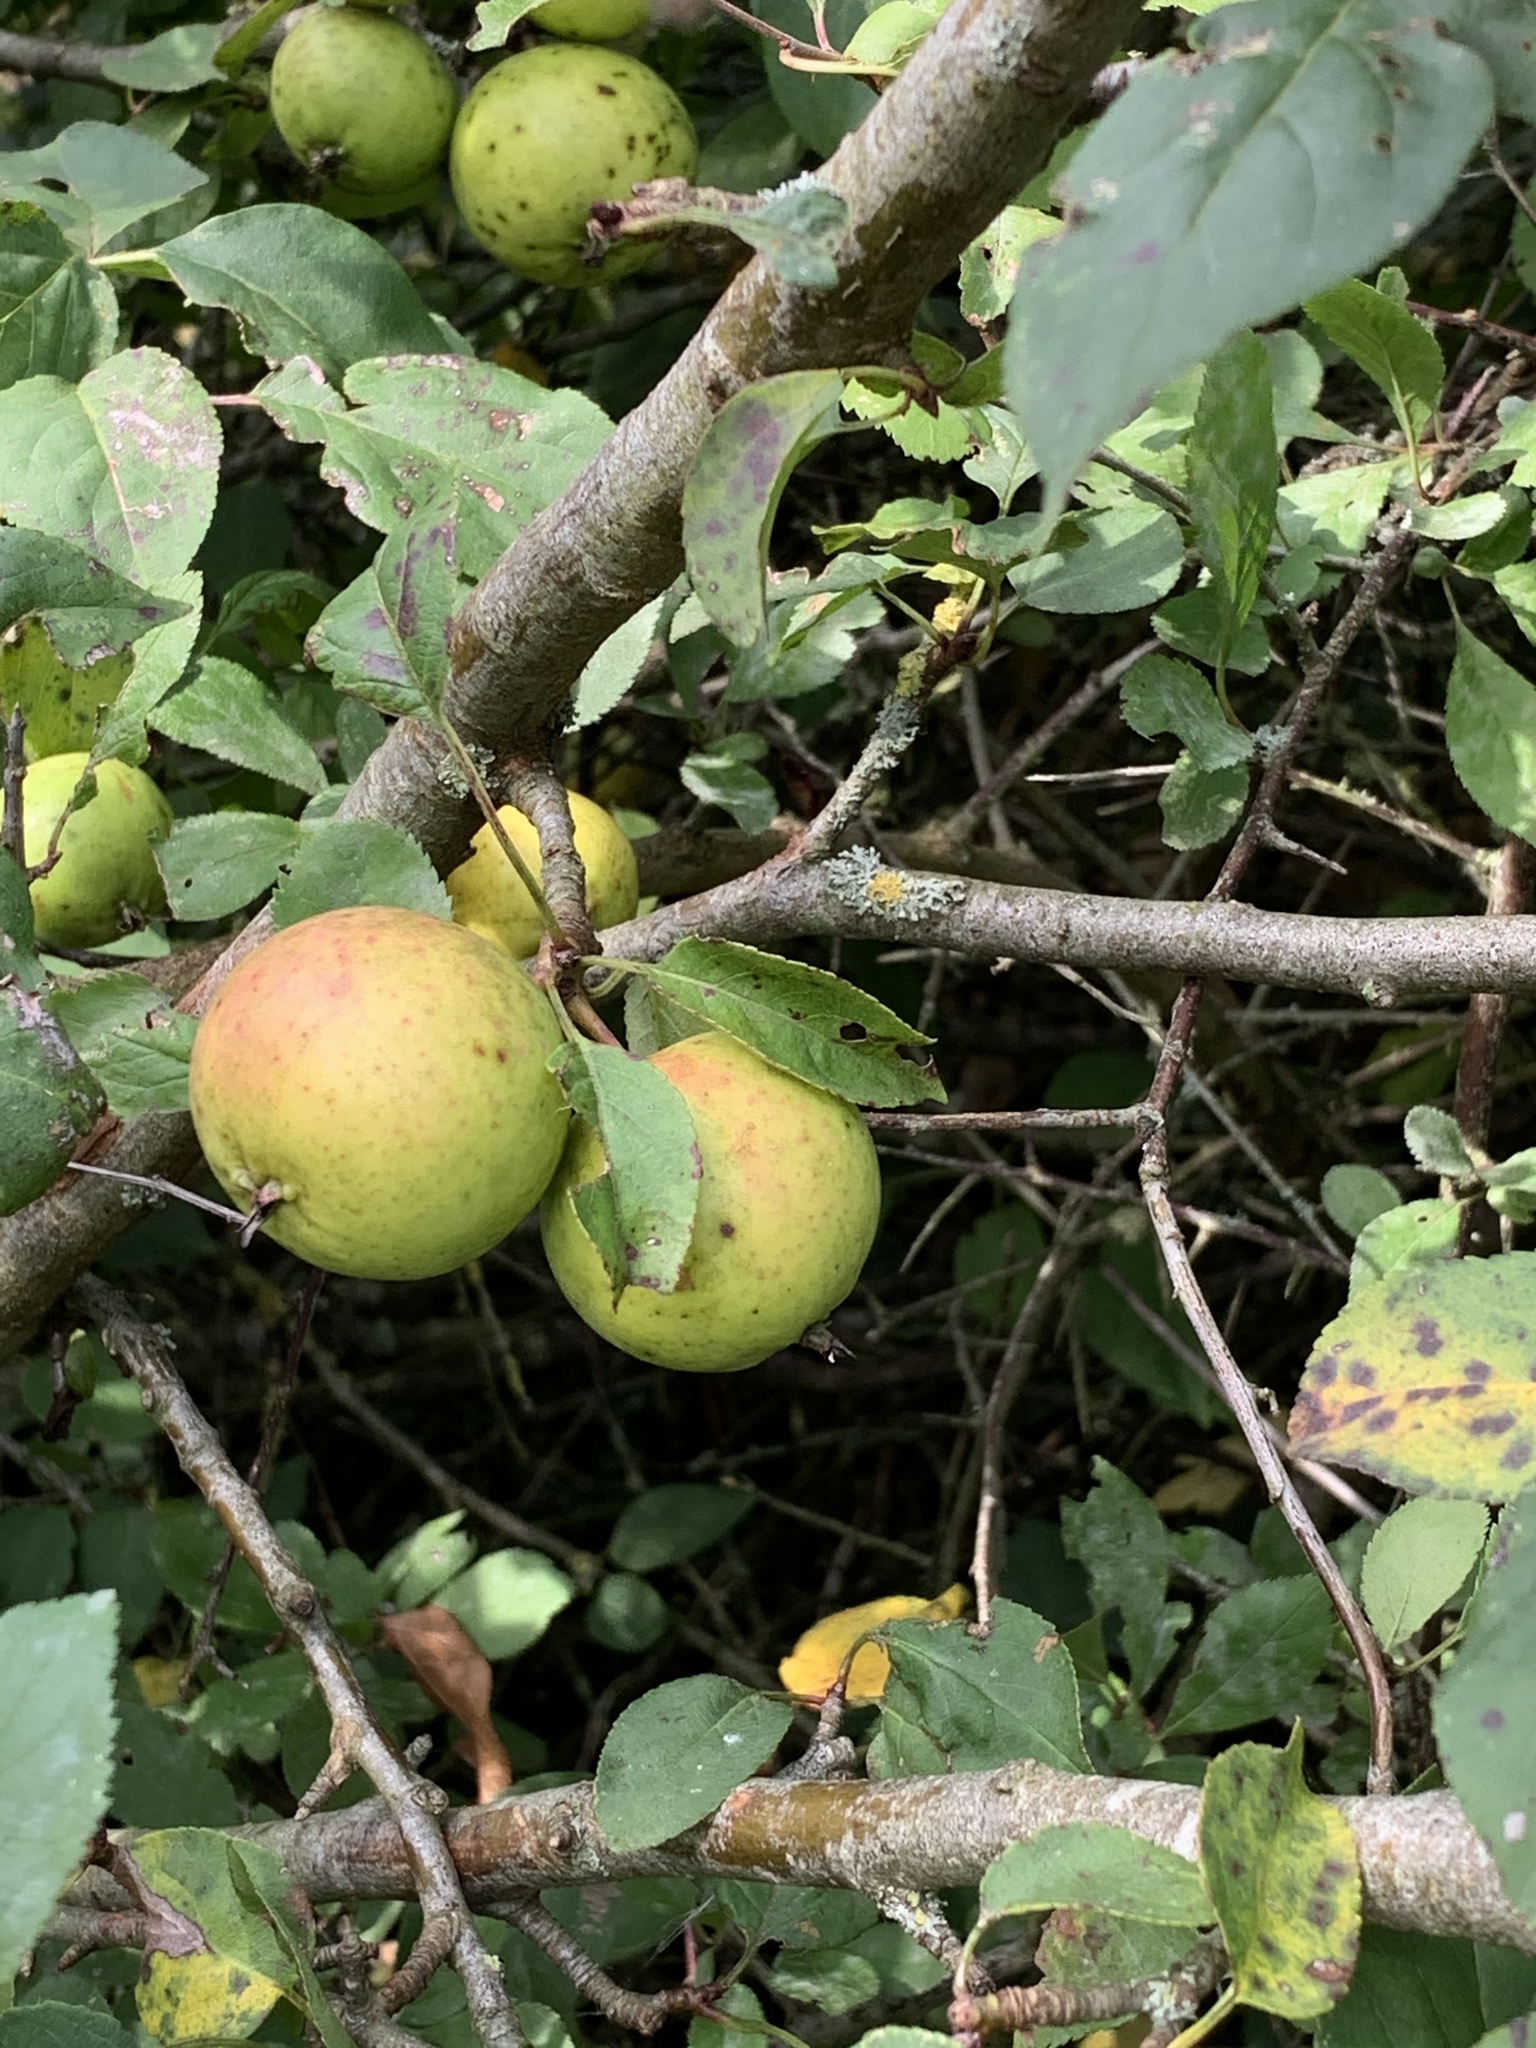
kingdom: Plantae
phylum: Tracheophyta
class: Magnoliopsida
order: Rosales
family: Rosaceae
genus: Malus
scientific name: Malus sylvestris
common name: Crab apple
